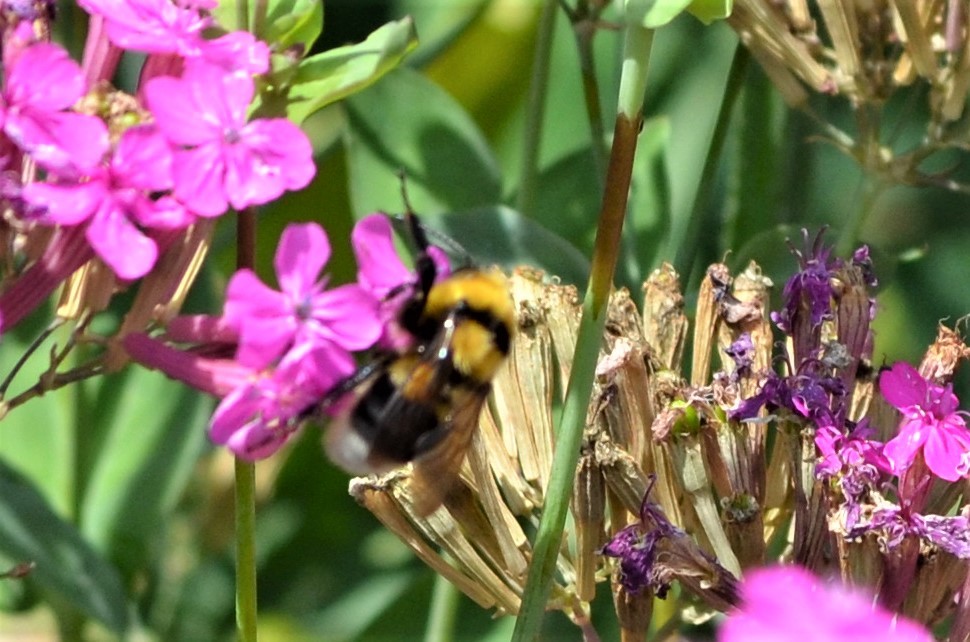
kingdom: Animalia
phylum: Arthropoda
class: Insecta
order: Hymenoptera
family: Apidae
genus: Bombus
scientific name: Bombus argillaceus
